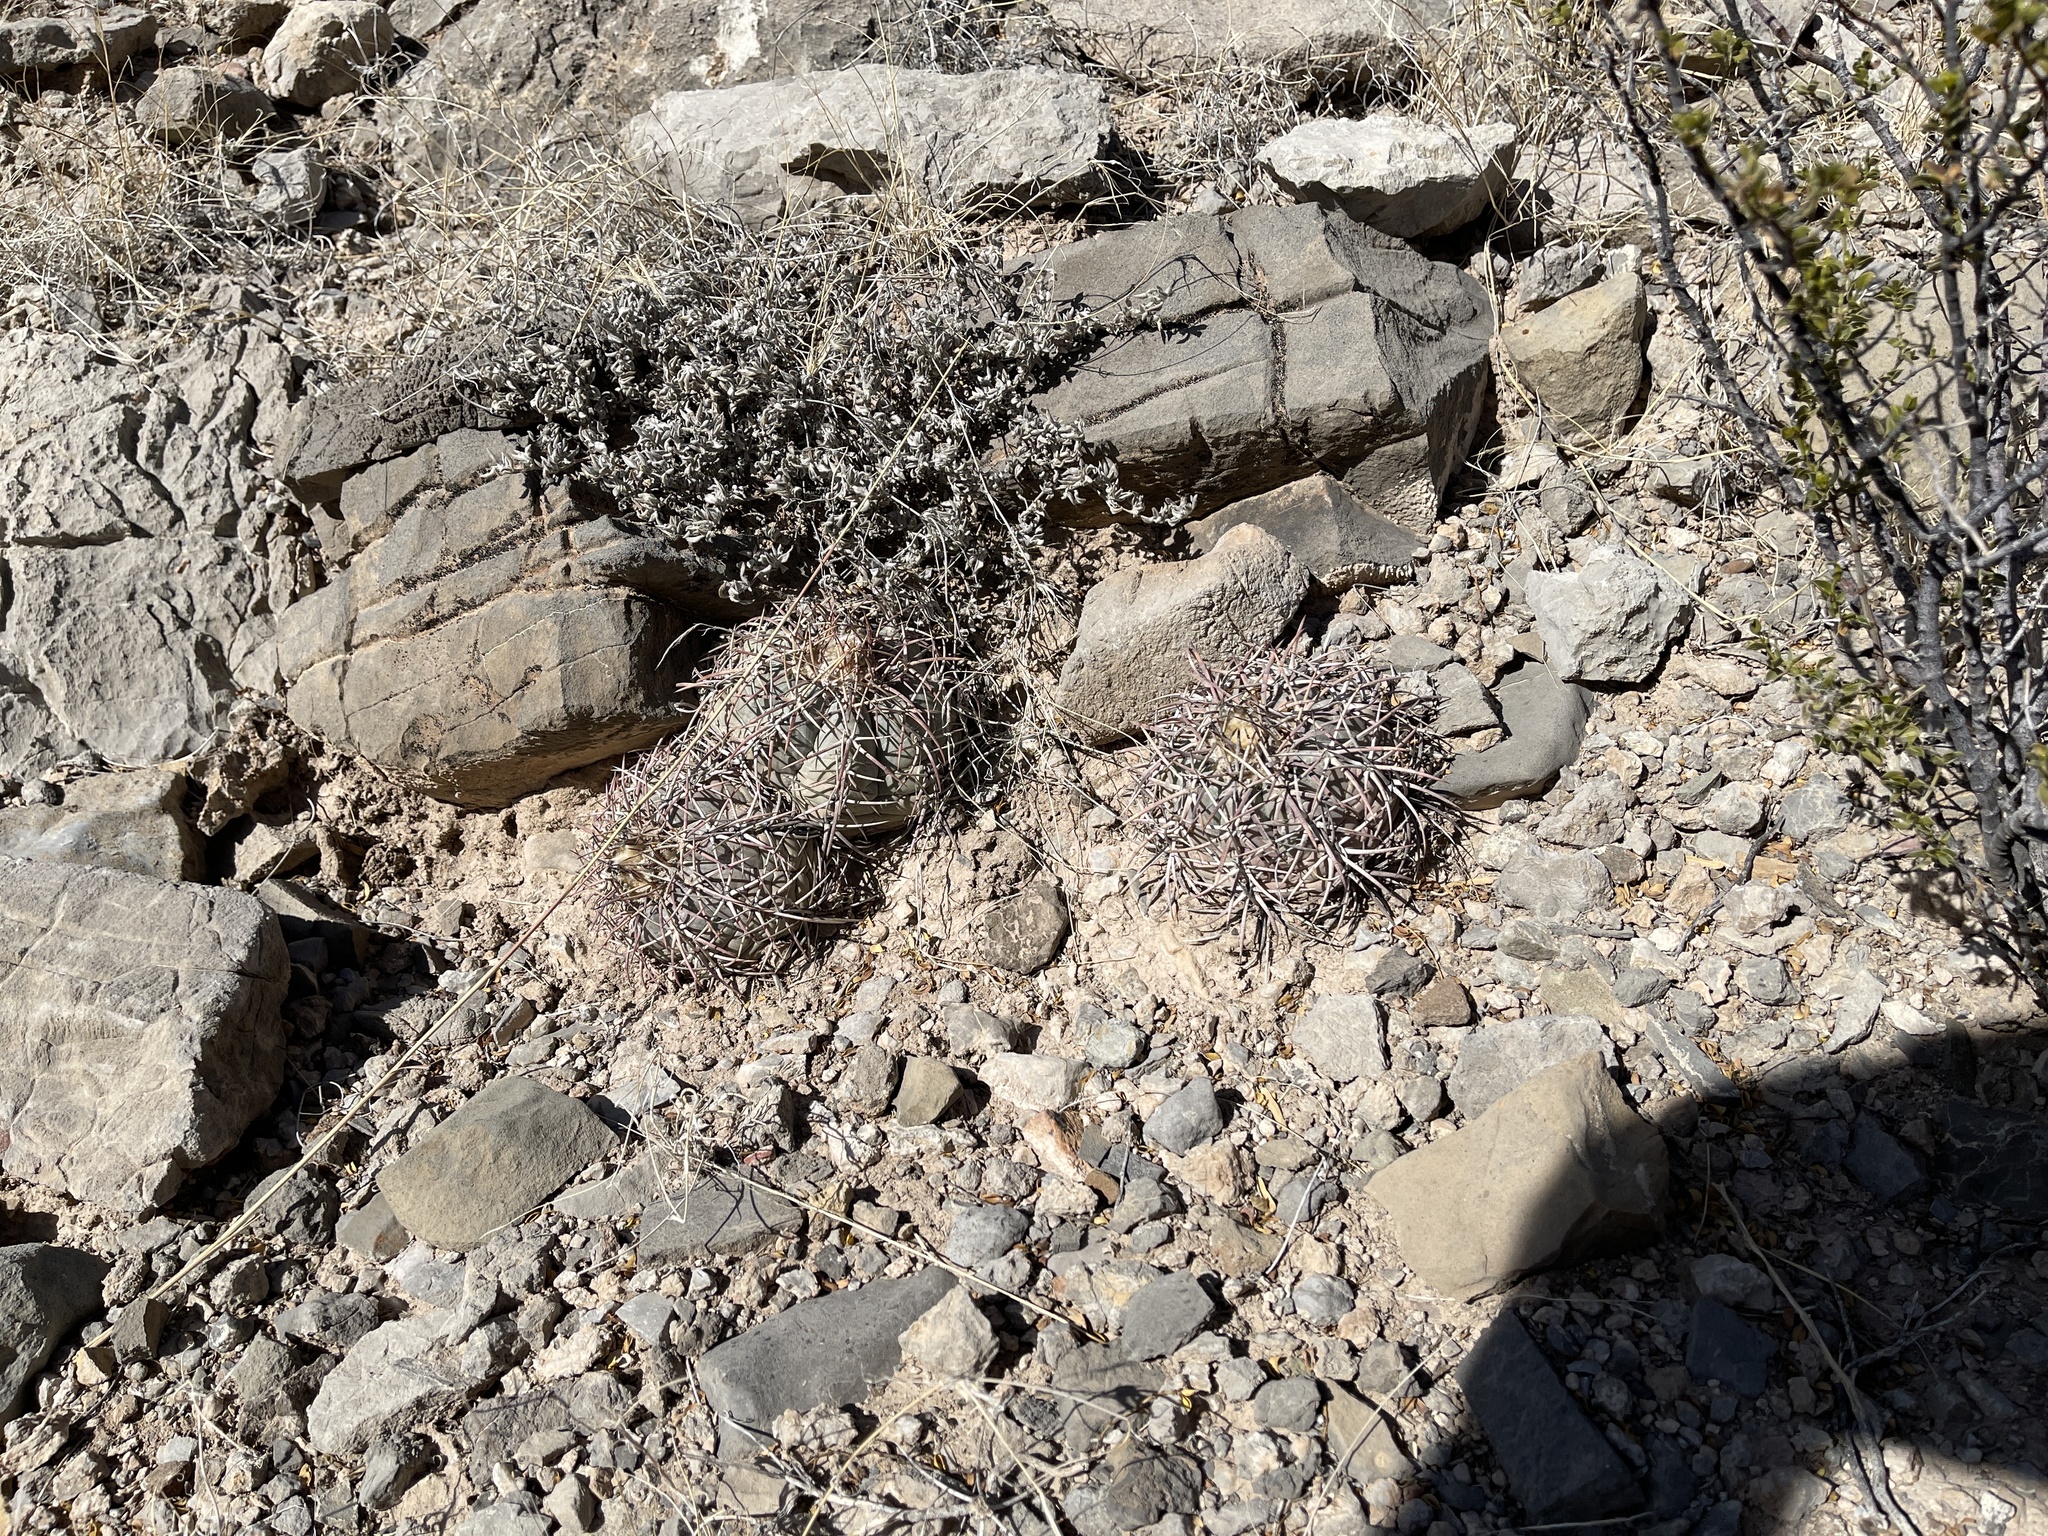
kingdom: Plantae
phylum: Tracheophyta
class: Magnoliopsida
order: Caryophyllales
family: Cactaceae
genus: Echinocactus
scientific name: Echinocactus horizonthalonius
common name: Devilshead
